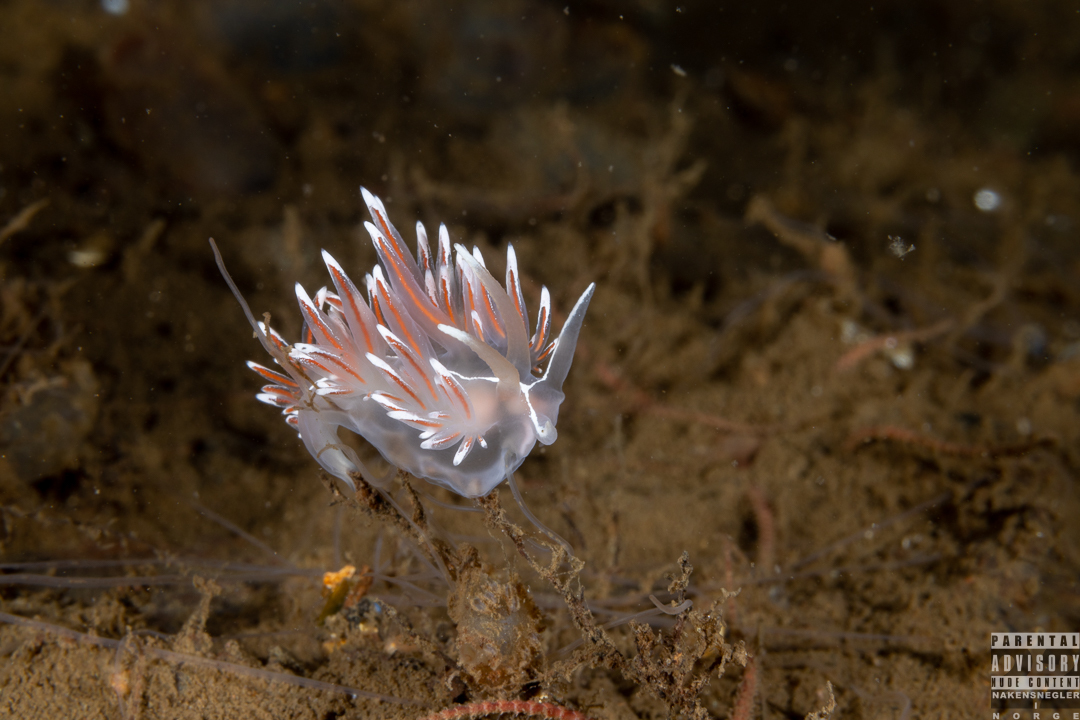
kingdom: Animalia
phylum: Mollusca
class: Gastropoda
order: Nudibranchia
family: Coryphellidae
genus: Coryphella
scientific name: Coryphella lineata
